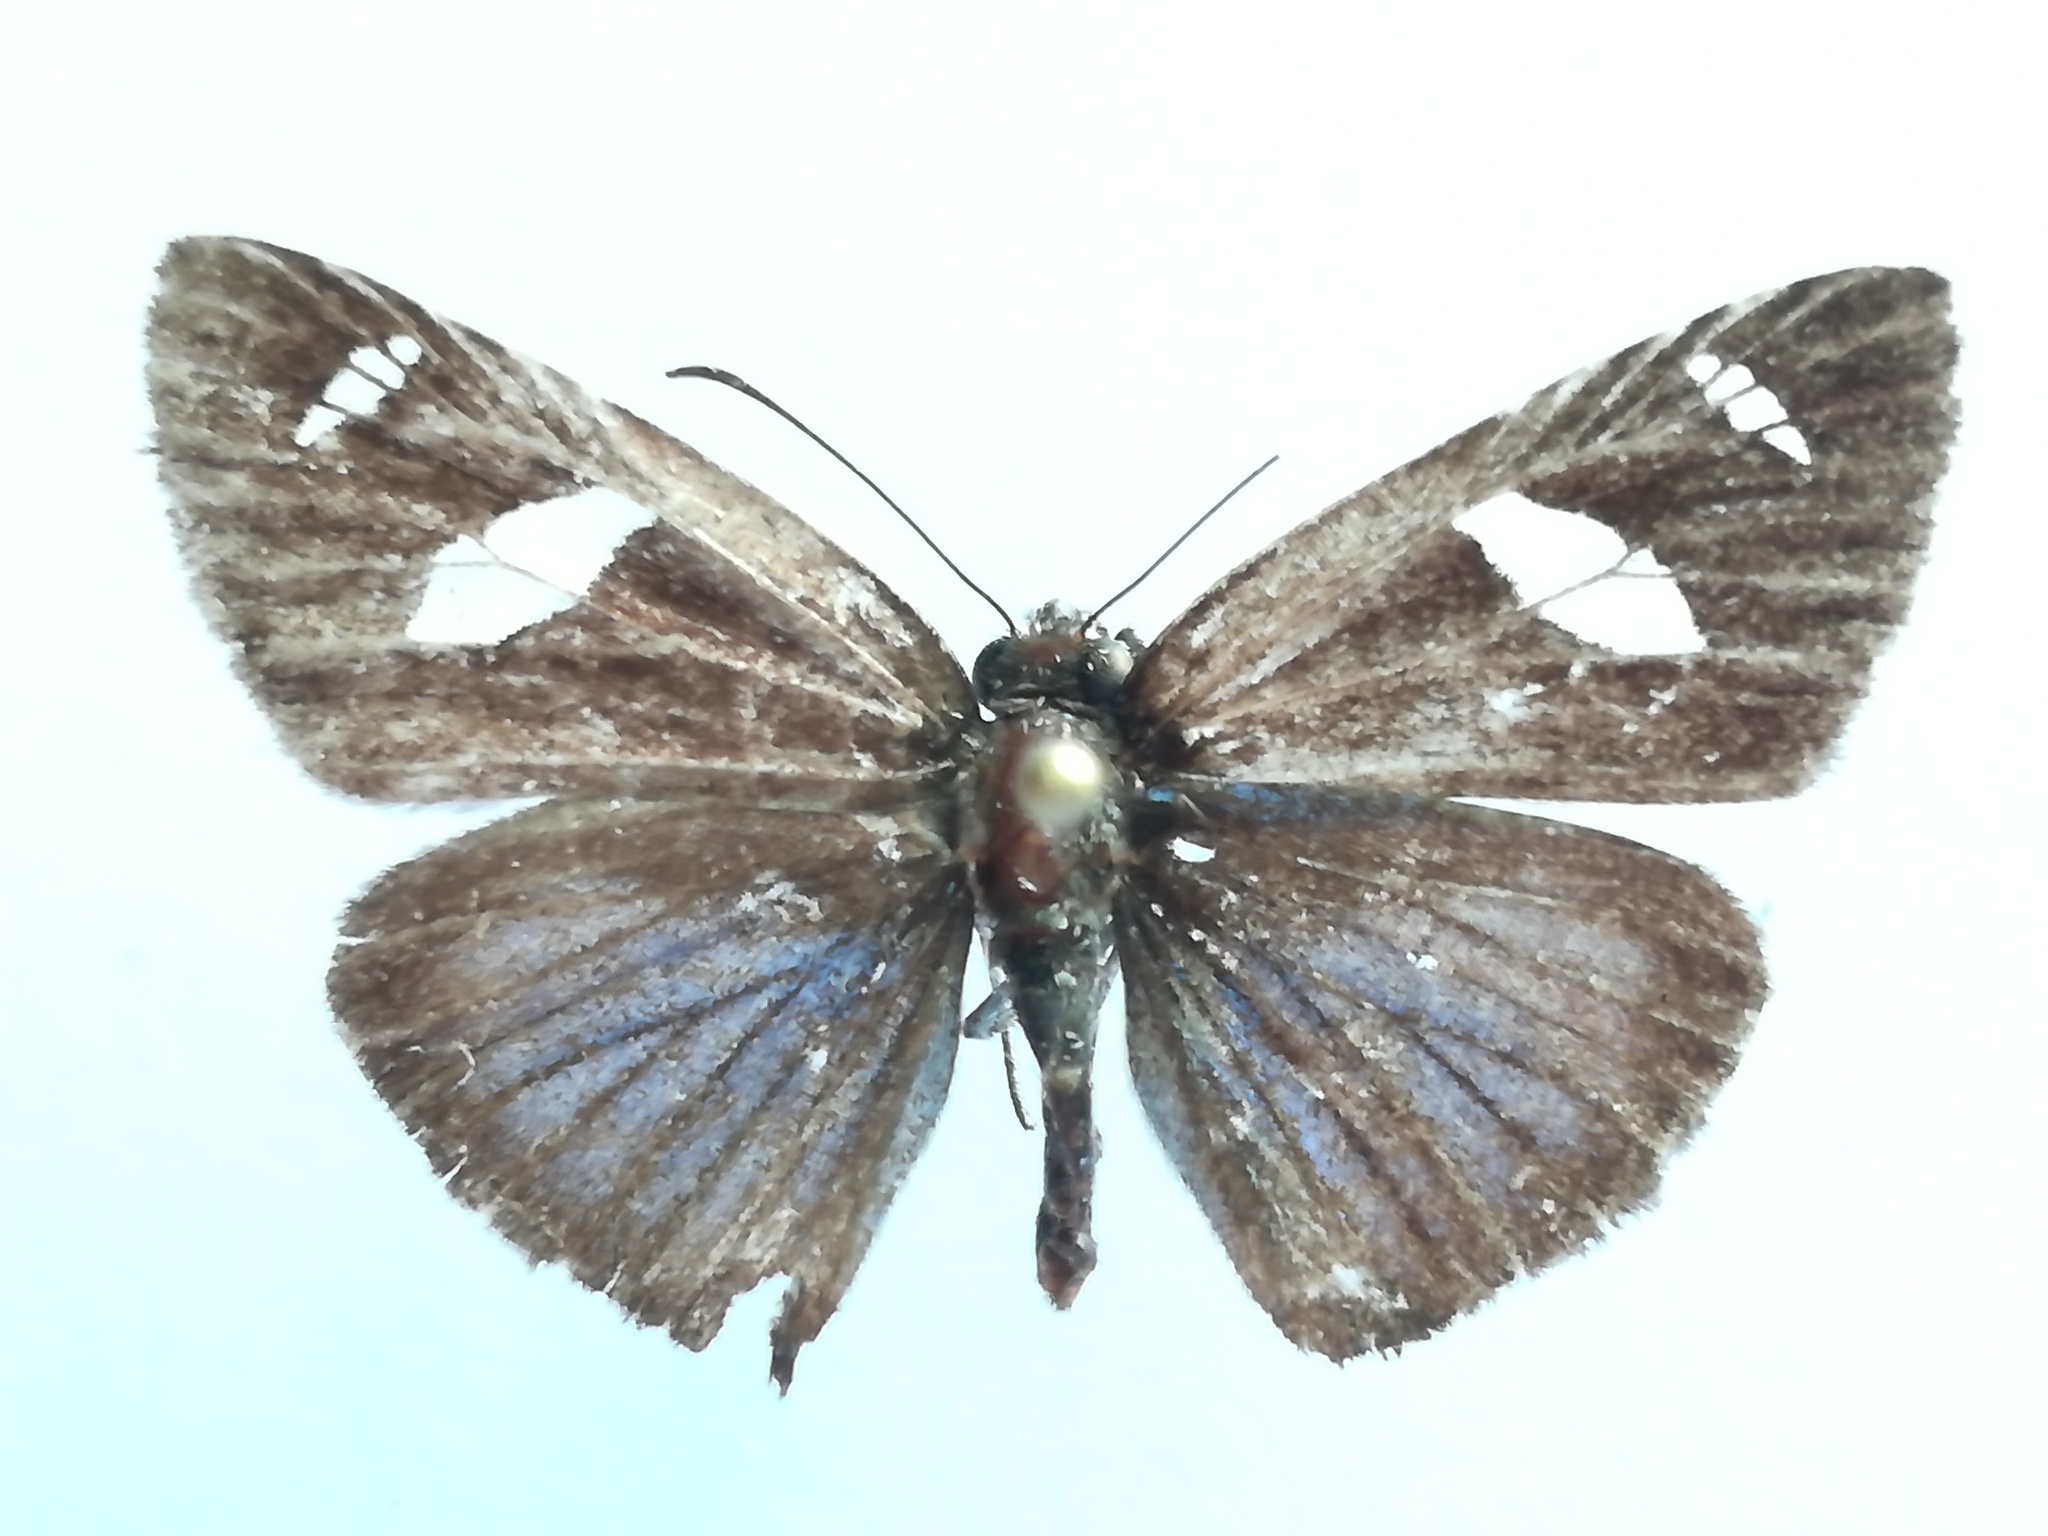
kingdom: Animalia
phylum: Arthropoda
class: Insecta
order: Lepidoptera
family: Hesperiidae
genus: Pythonides
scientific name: Pythonides jovianus
